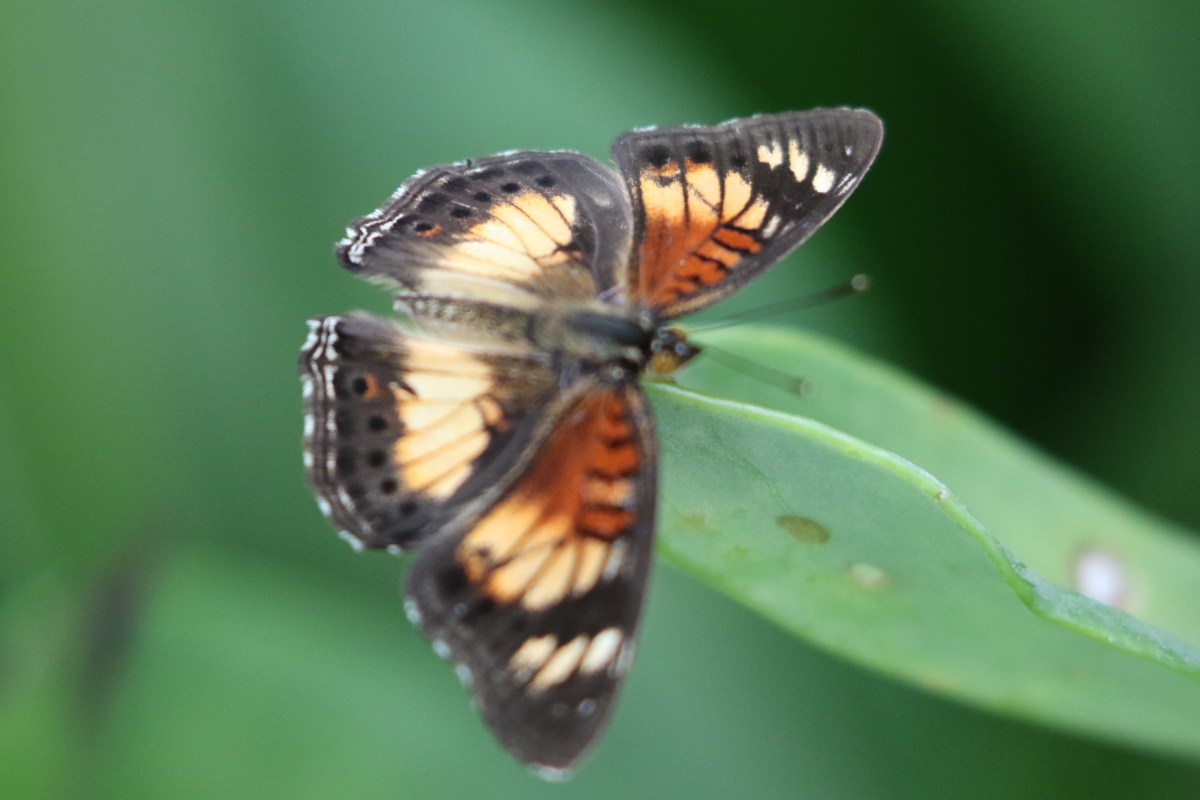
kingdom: Animalia
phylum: Arthropoda
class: Insecta
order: Lepidoptera
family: Nymphalidae
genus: Junonia
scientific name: Junonia sophia
